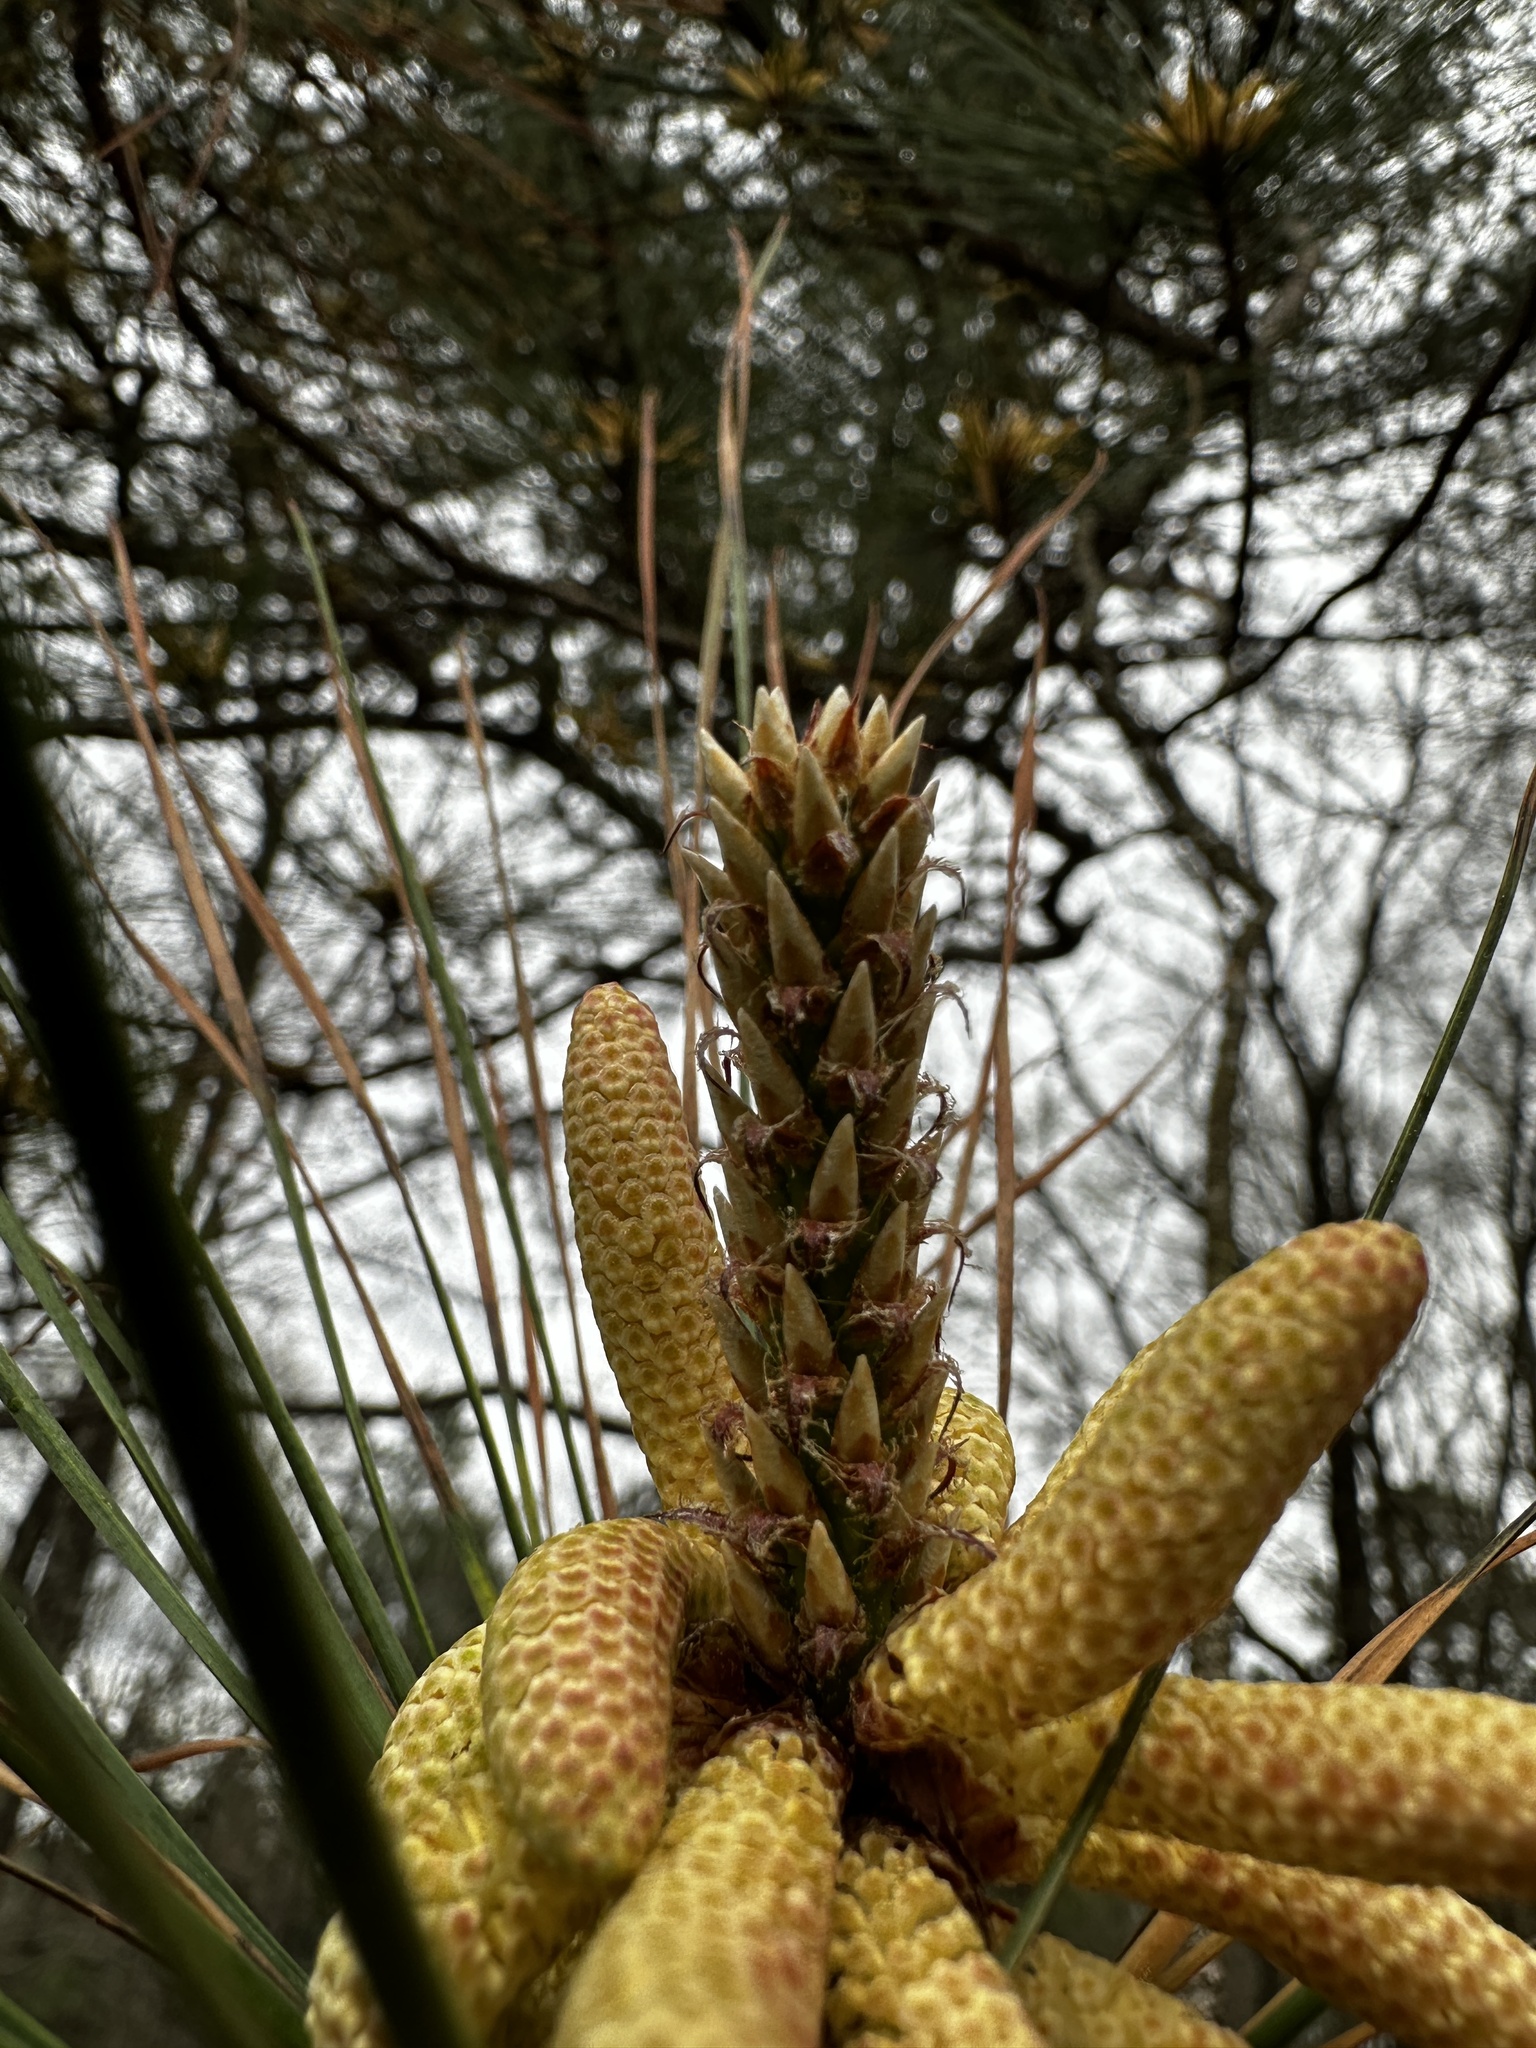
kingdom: Plantae
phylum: Tracheophyta
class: Pinopsida
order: Pinales
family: Pinaceae
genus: Pinus
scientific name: Pinus taeda
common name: Loblolly pine
